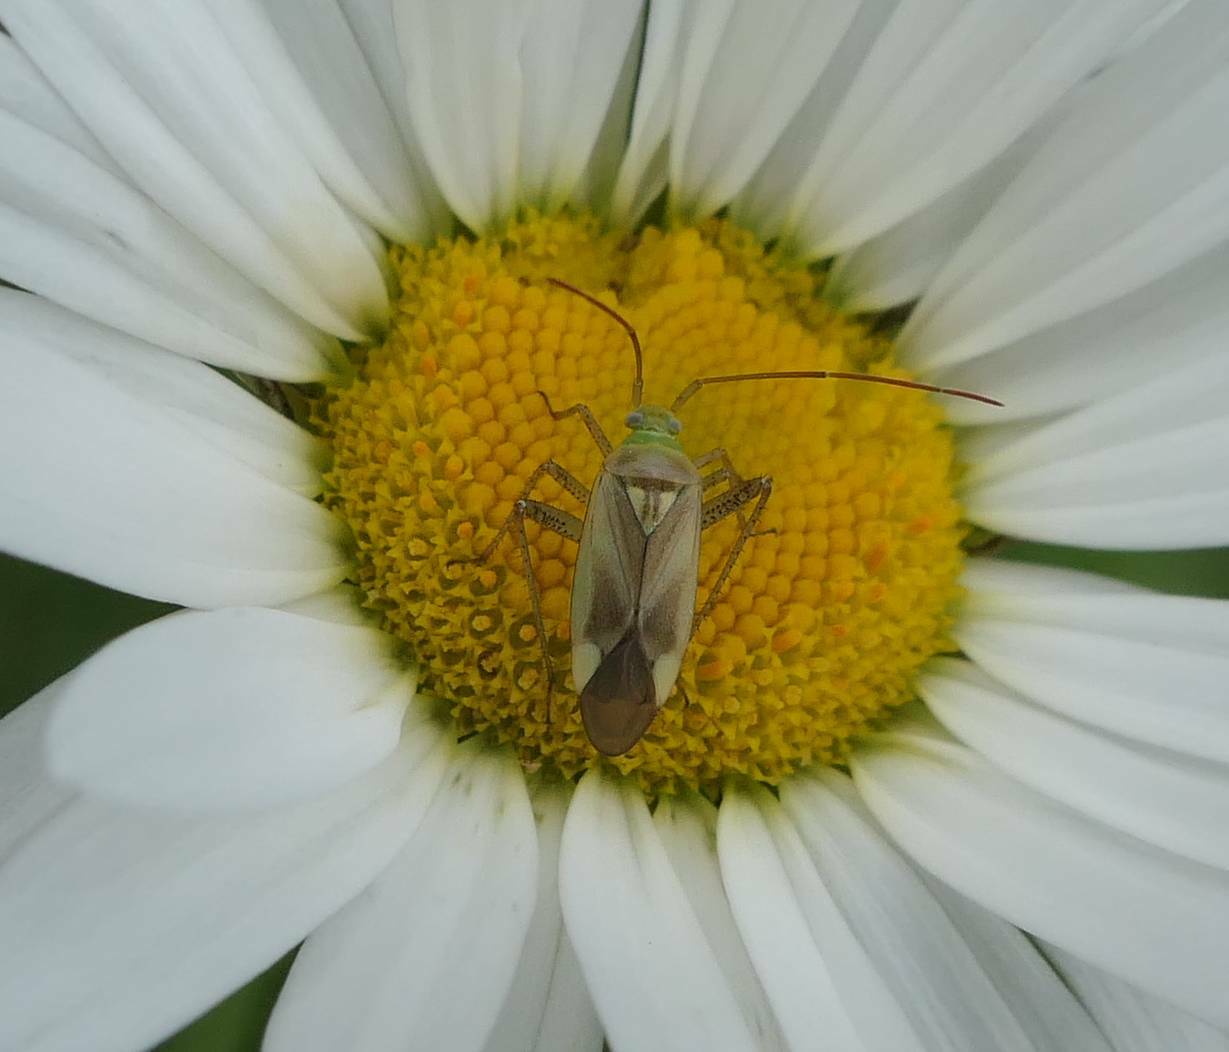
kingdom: Animalia
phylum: Arthropoda
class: Insecta
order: Hemiptera
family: Miridae
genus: Adelphocoris
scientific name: Adelphocoris lineolatus
